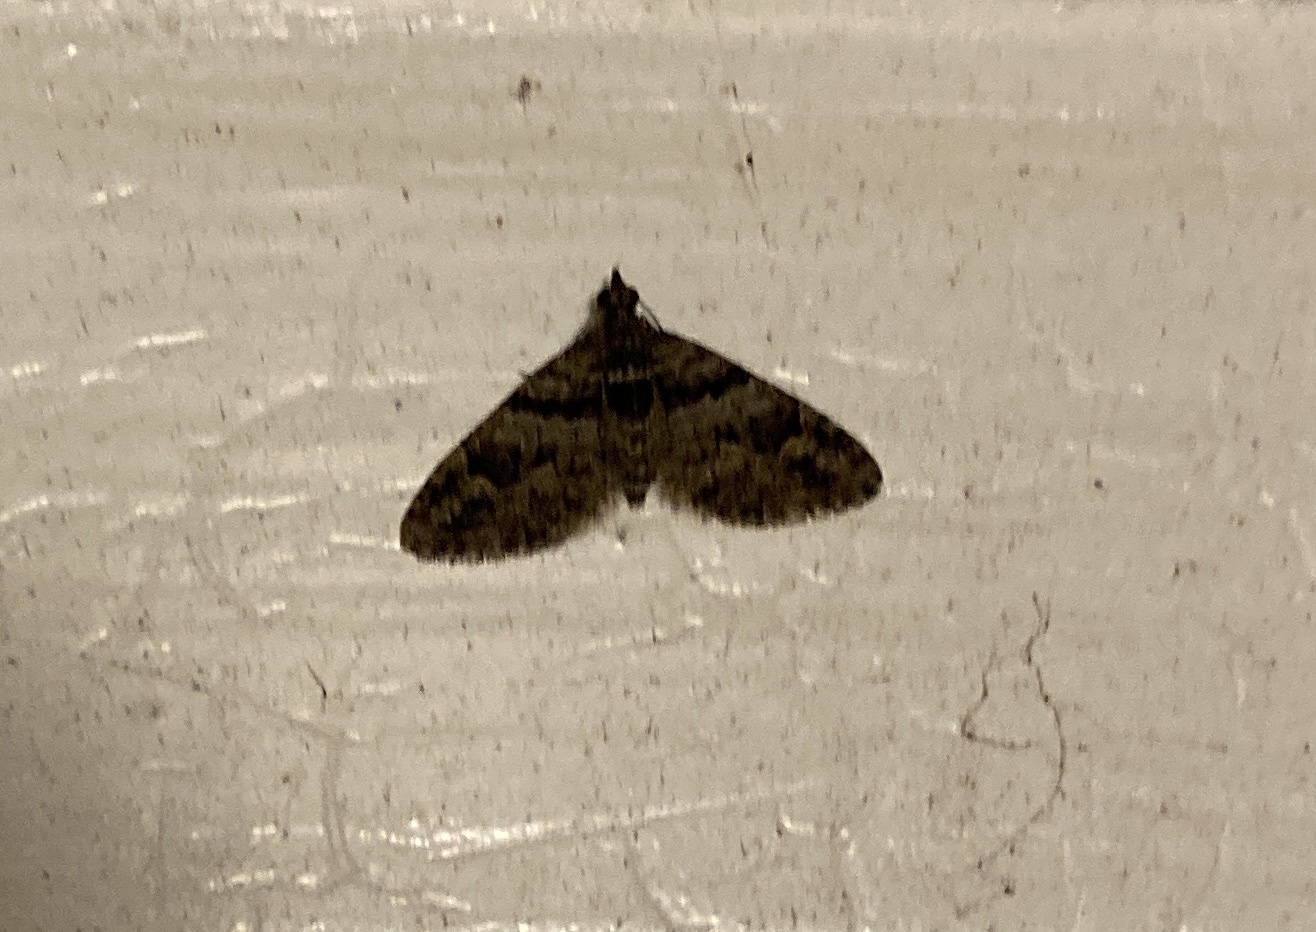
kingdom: Animalia
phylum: Arthropoda
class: Insecta
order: Lepidoptera
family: Geometridae
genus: Phrissogonus
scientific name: Phrissogonus laticostata
